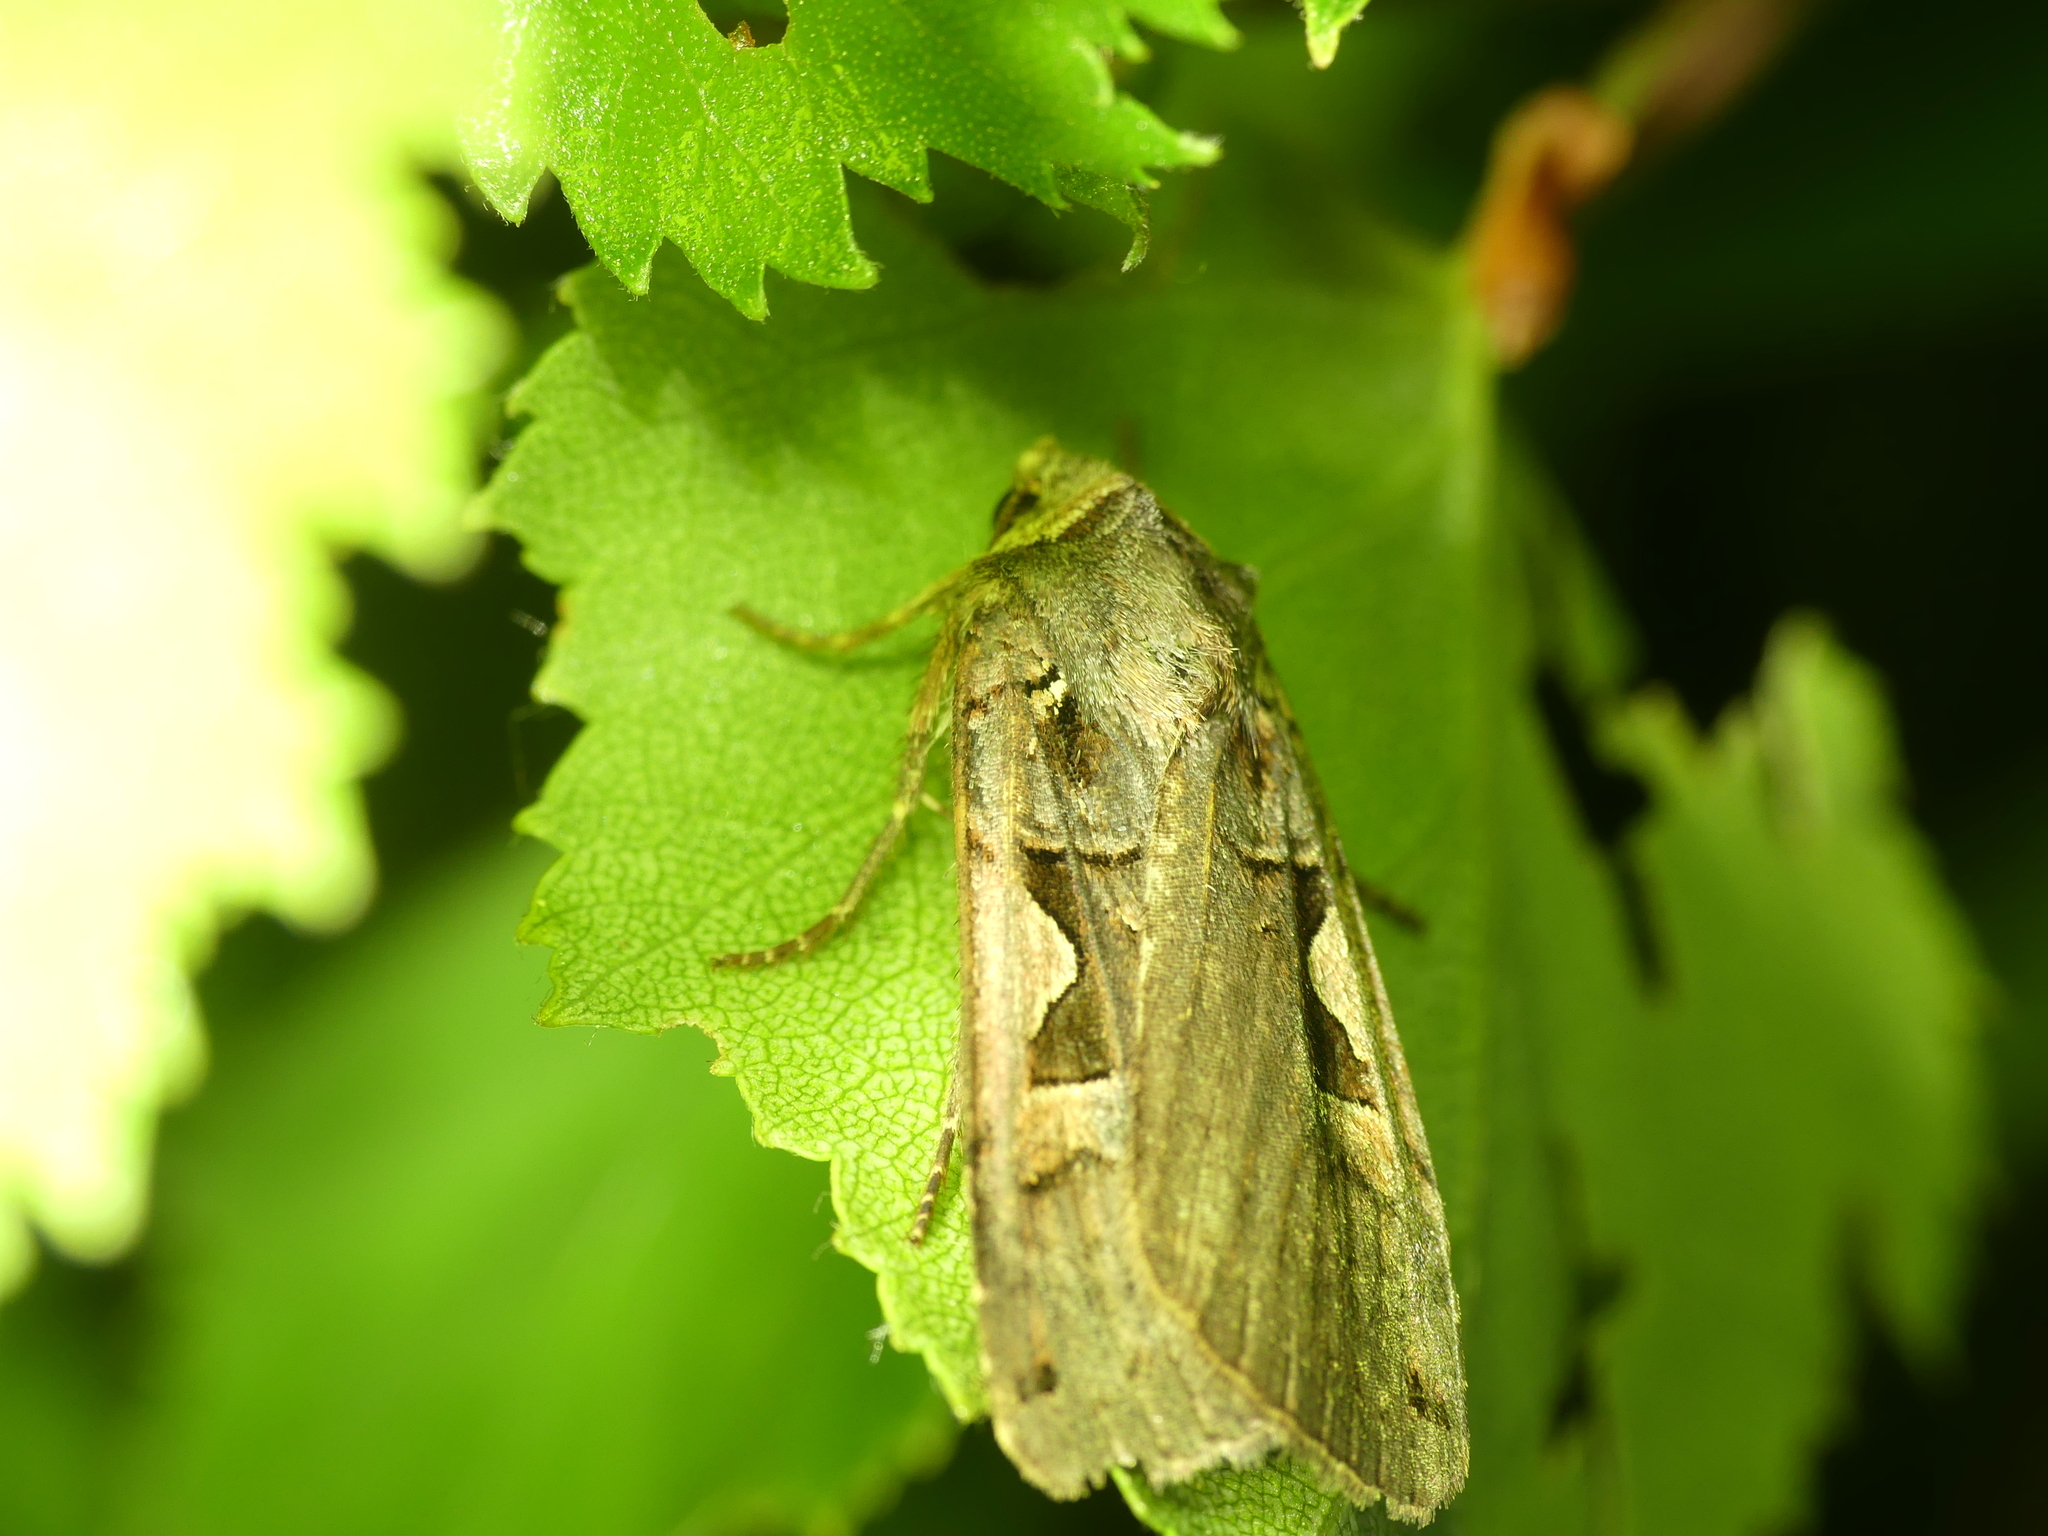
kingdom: Animalia
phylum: Arthropoda
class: Insecta
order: Lepidoptera
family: Noctuidae
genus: Xestia
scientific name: Xestia c-nigrum
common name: Setaceous hebrew character
